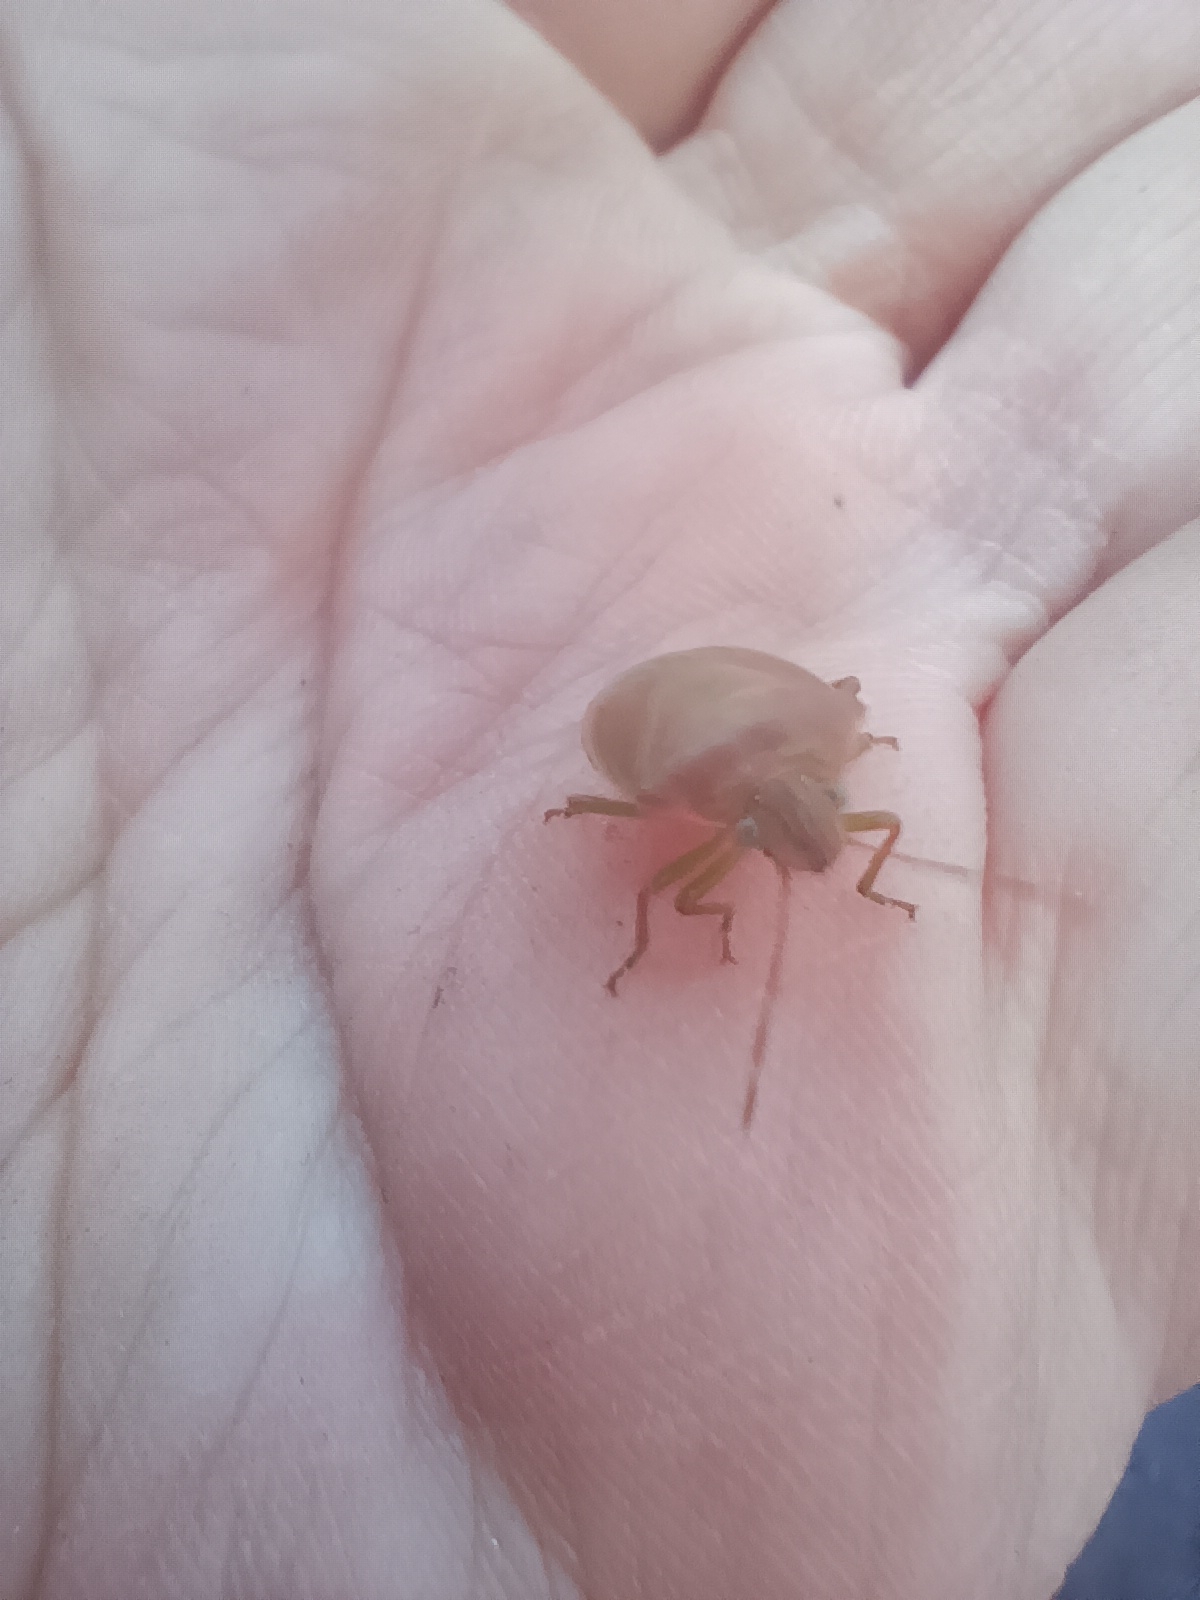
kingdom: Animalia
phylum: Arthropoda
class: Insecta
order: Hemiptera
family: Pentatomidae
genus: Acrosternum
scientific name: Acrosternum heegeri
